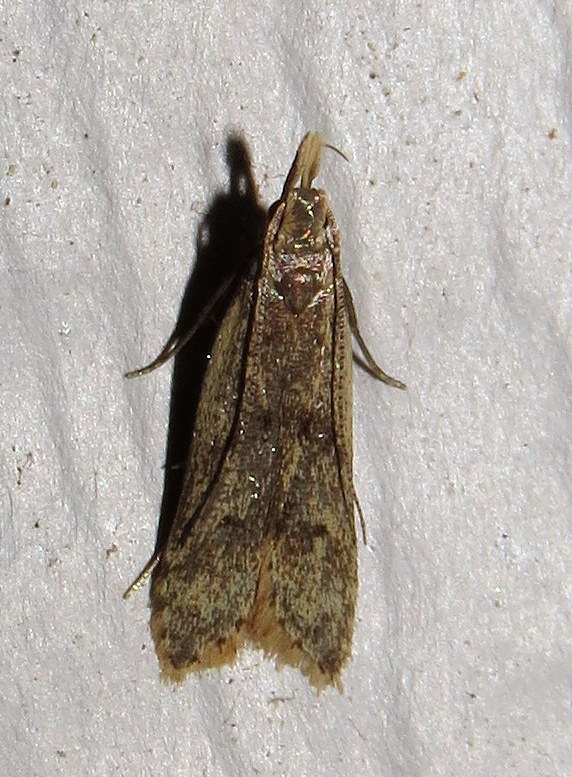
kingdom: Animalia
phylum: Arthropoda
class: Insecta
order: Lepidoptera
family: Gelechiidae
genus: Dichomeris
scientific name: Dichomeris punctipennella
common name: Many-spotted dichomeris moth
